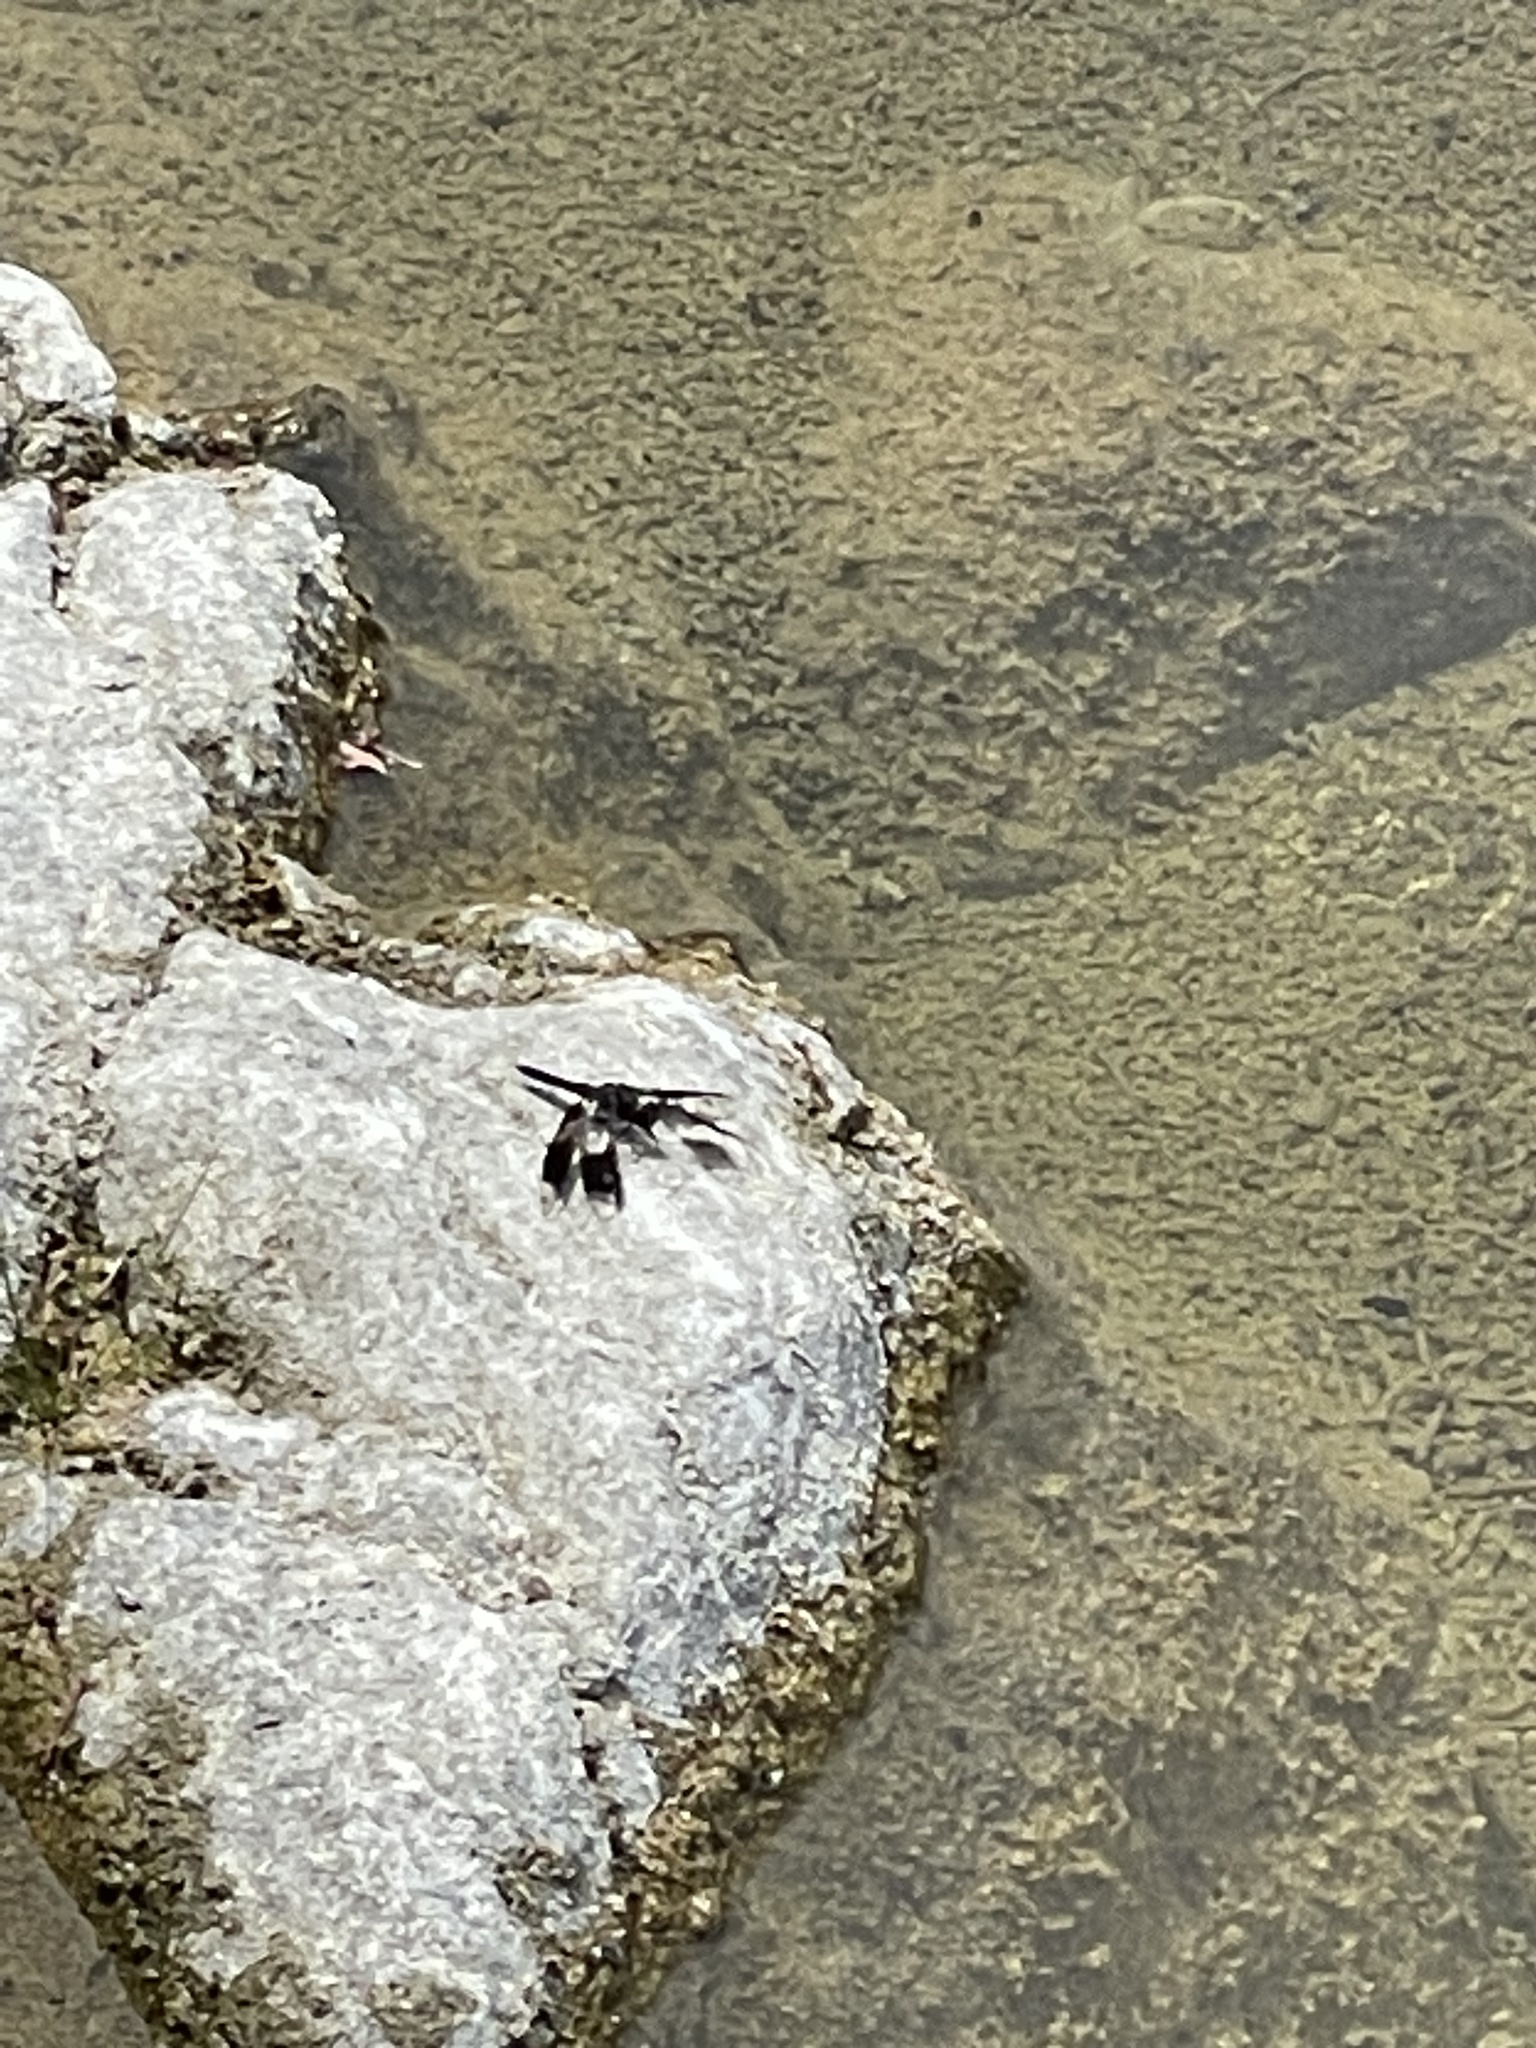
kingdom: Animalia
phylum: Arthropoda
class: Insecta
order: Odonata
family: Libellulidae
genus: Pseudoleon
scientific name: Pseudoleon superbus
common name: Filigree skimmer
